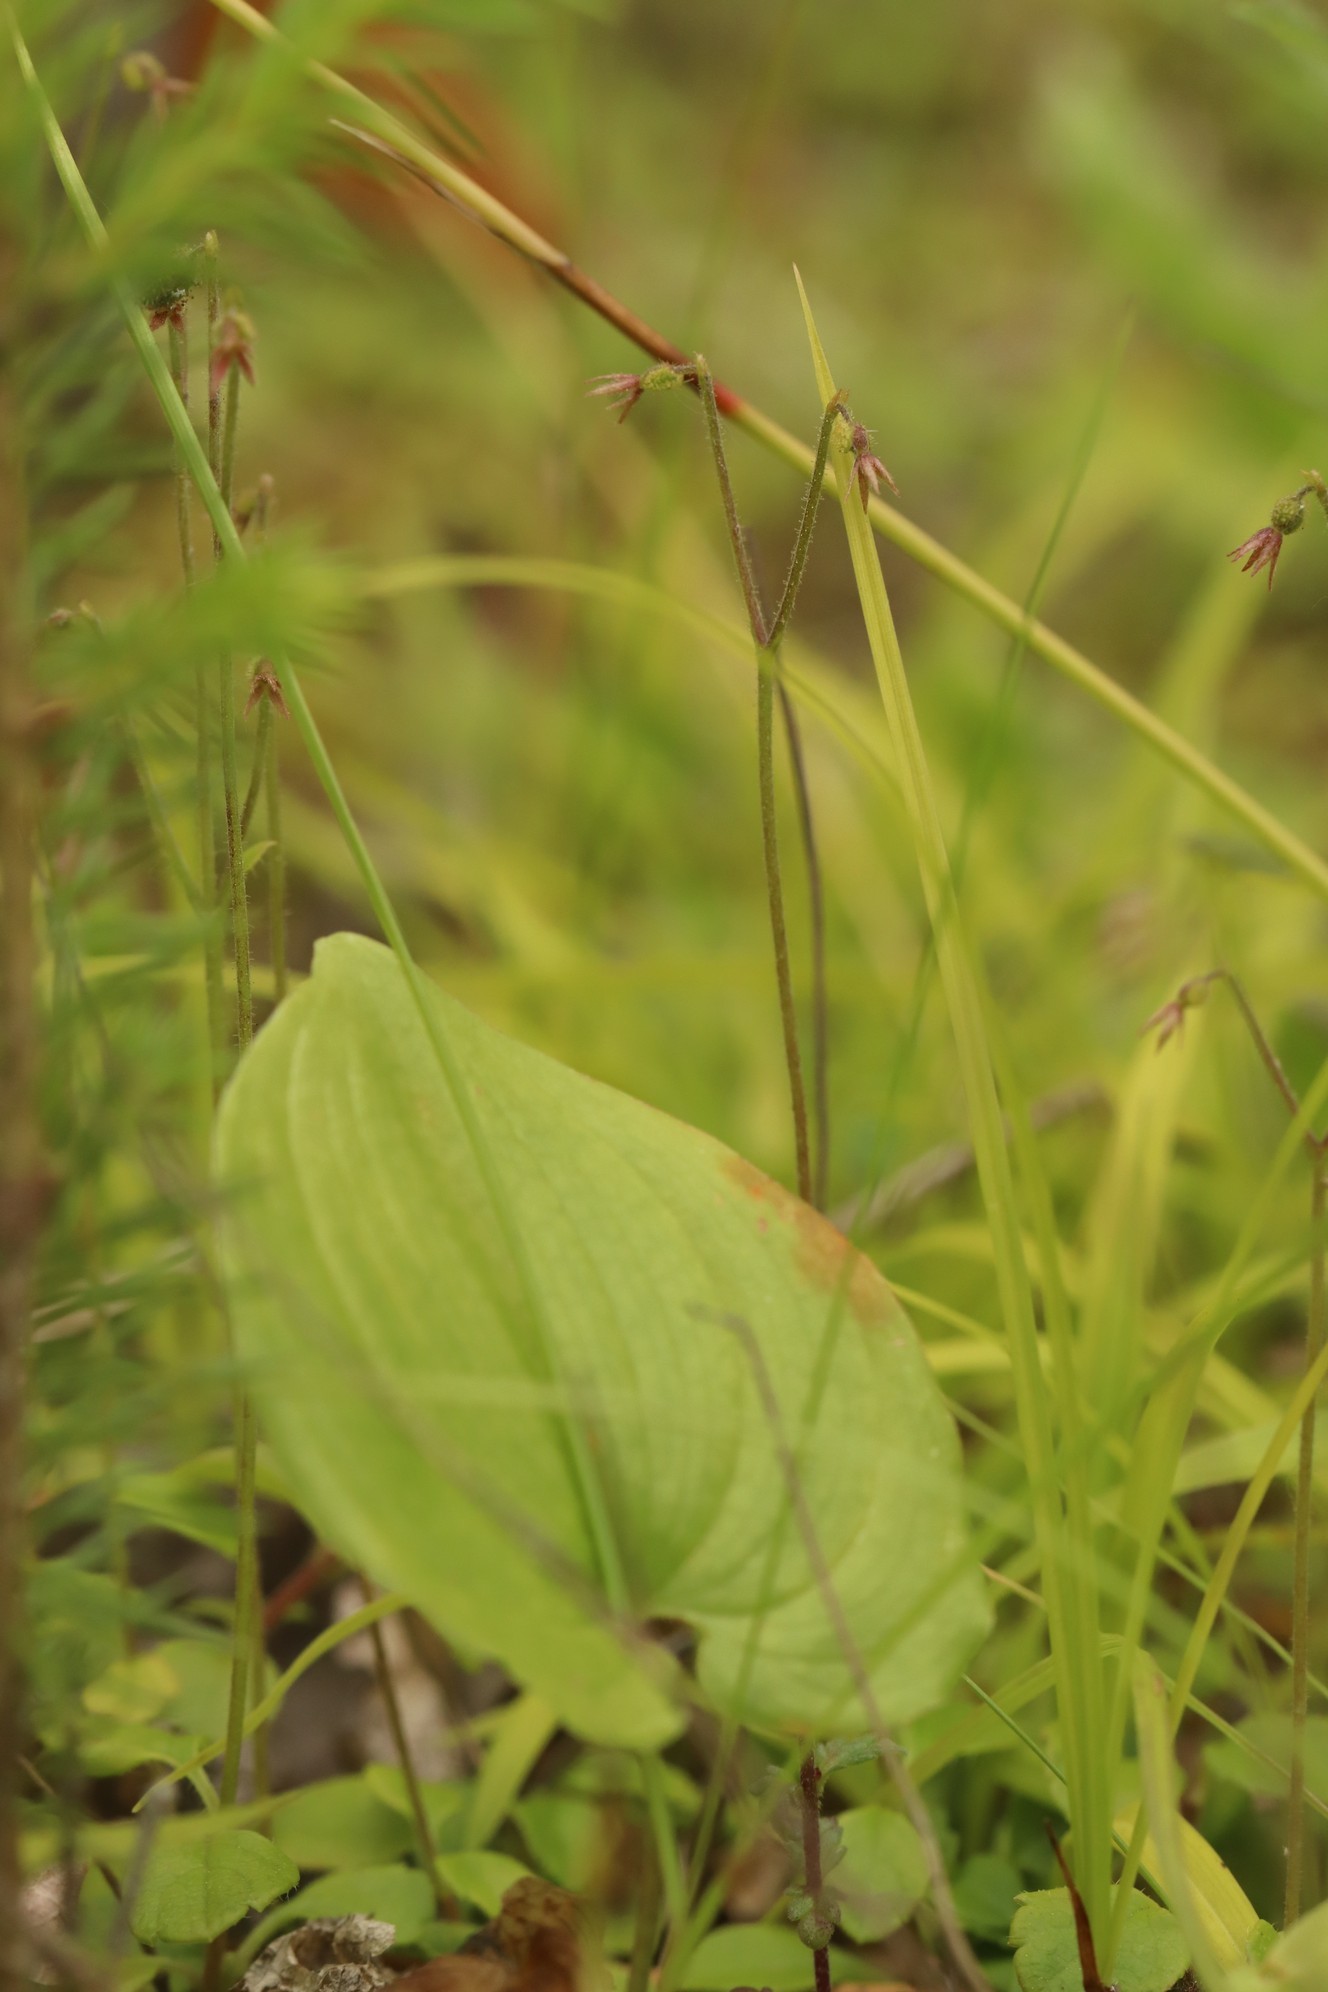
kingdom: Plantae
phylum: Tracheophyta
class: Magnoliopsida
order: Dipsacales
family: Caprifoliaceae
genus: Linnaea
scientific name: Linnaea borealis
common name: Twinflower
